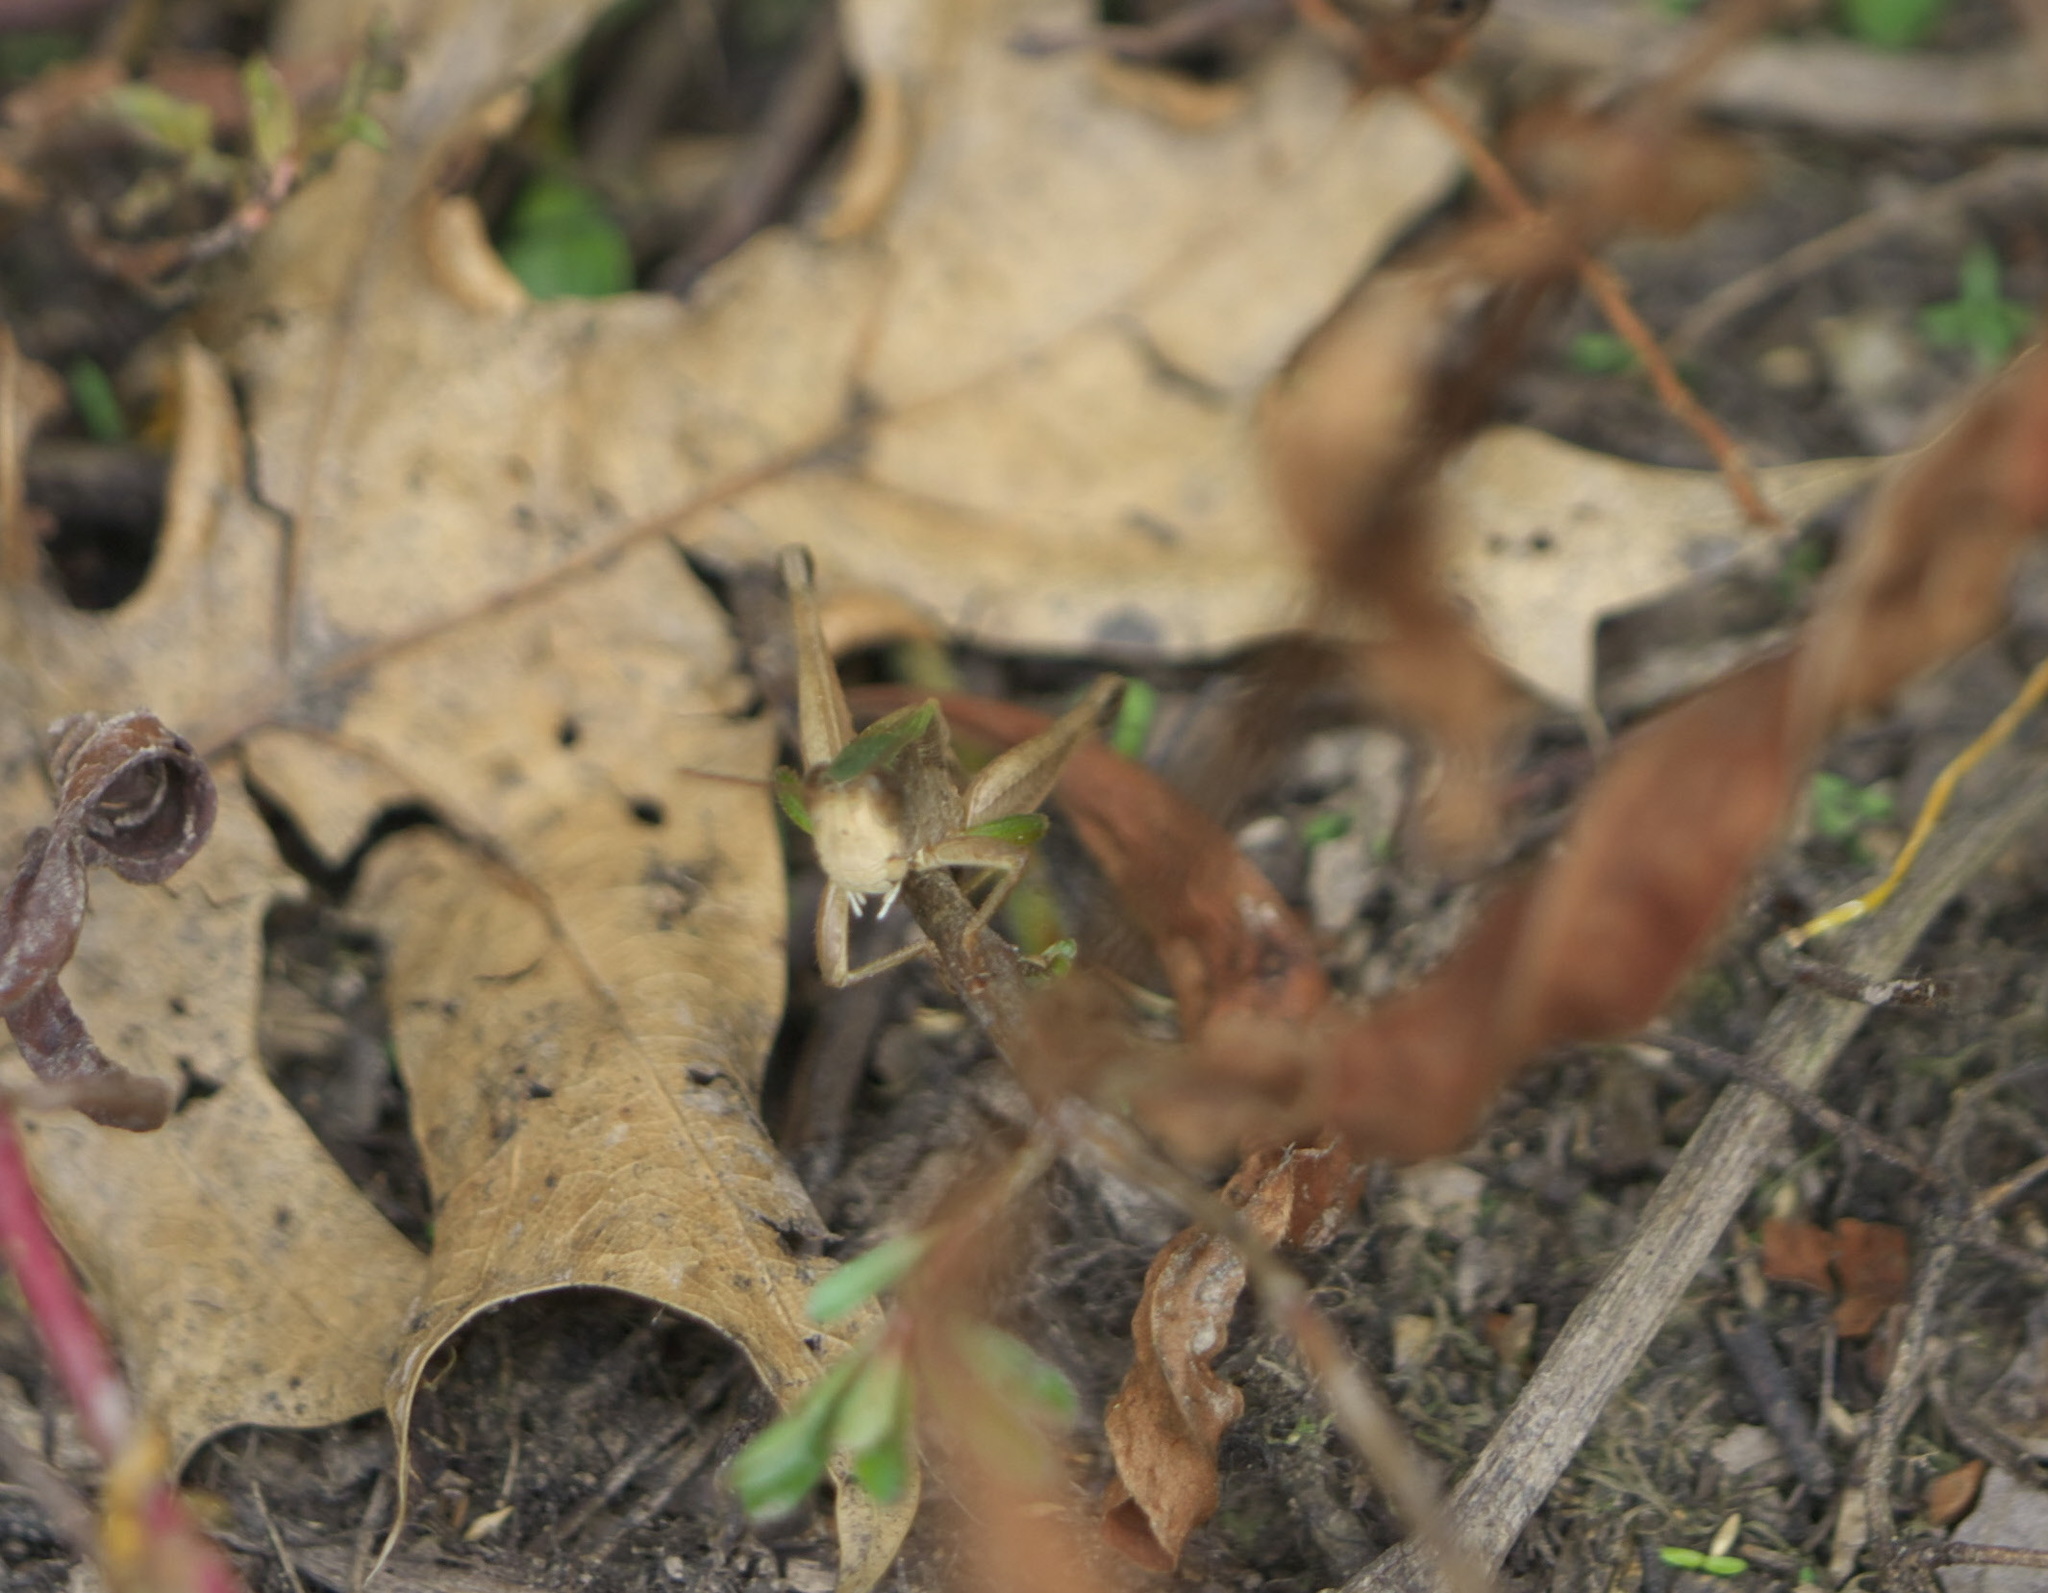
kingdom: Animalia
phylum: Arthropoda
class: Insecta
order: Orthoptera
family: Acrididae
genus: Dichromorpha
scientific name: Dichromorpha viridis
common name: Short-winged green grasshopper
